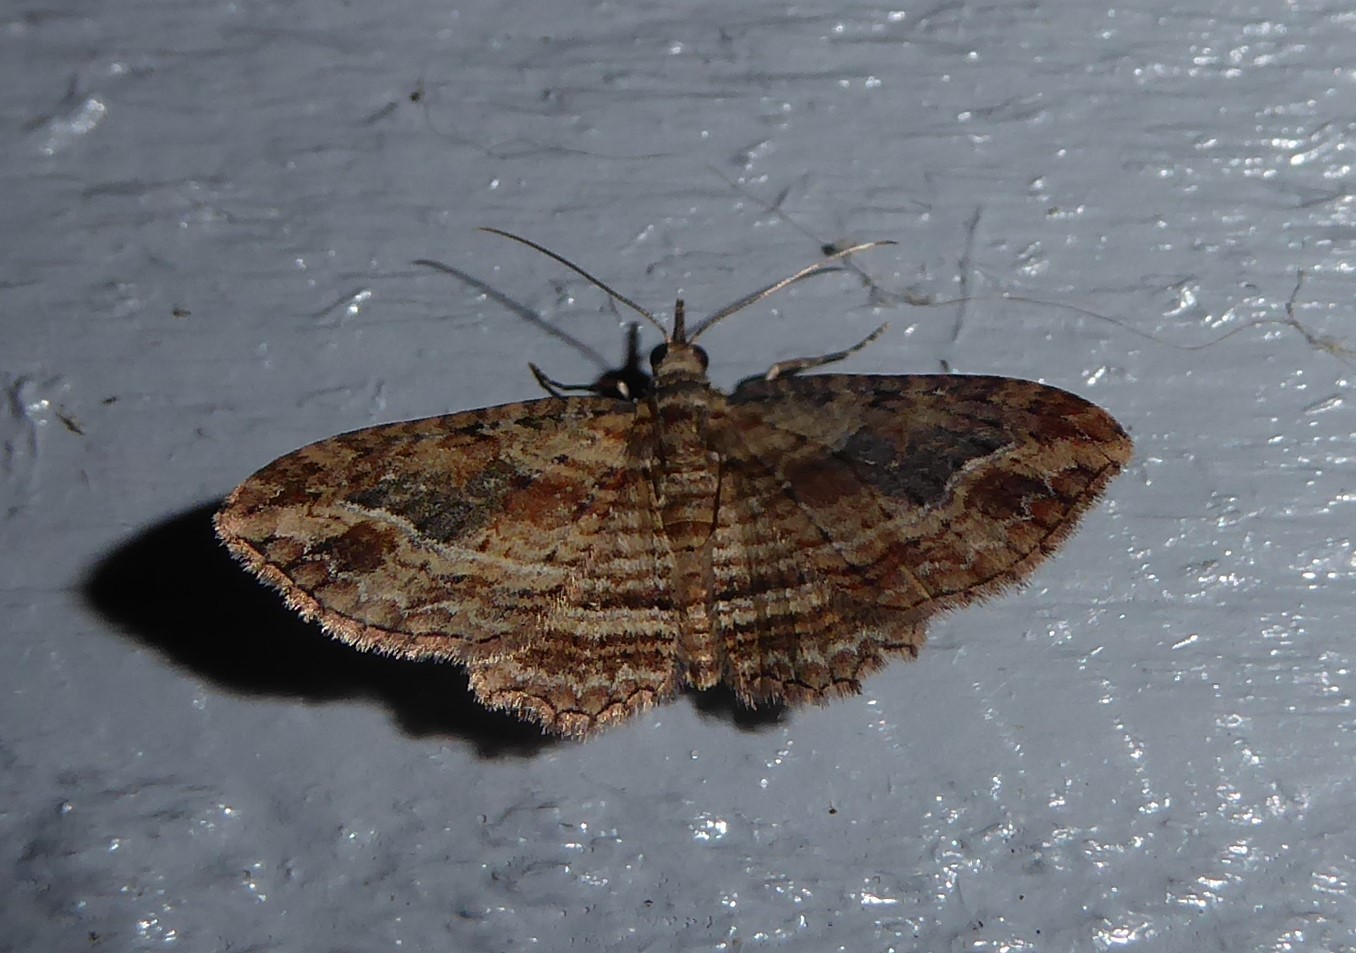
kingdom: Animalia
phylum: Arthropoda
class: Insecta
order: Lepidoptera
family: Geometridae
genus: Chloroclystis
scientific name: Chloroclystis filata
